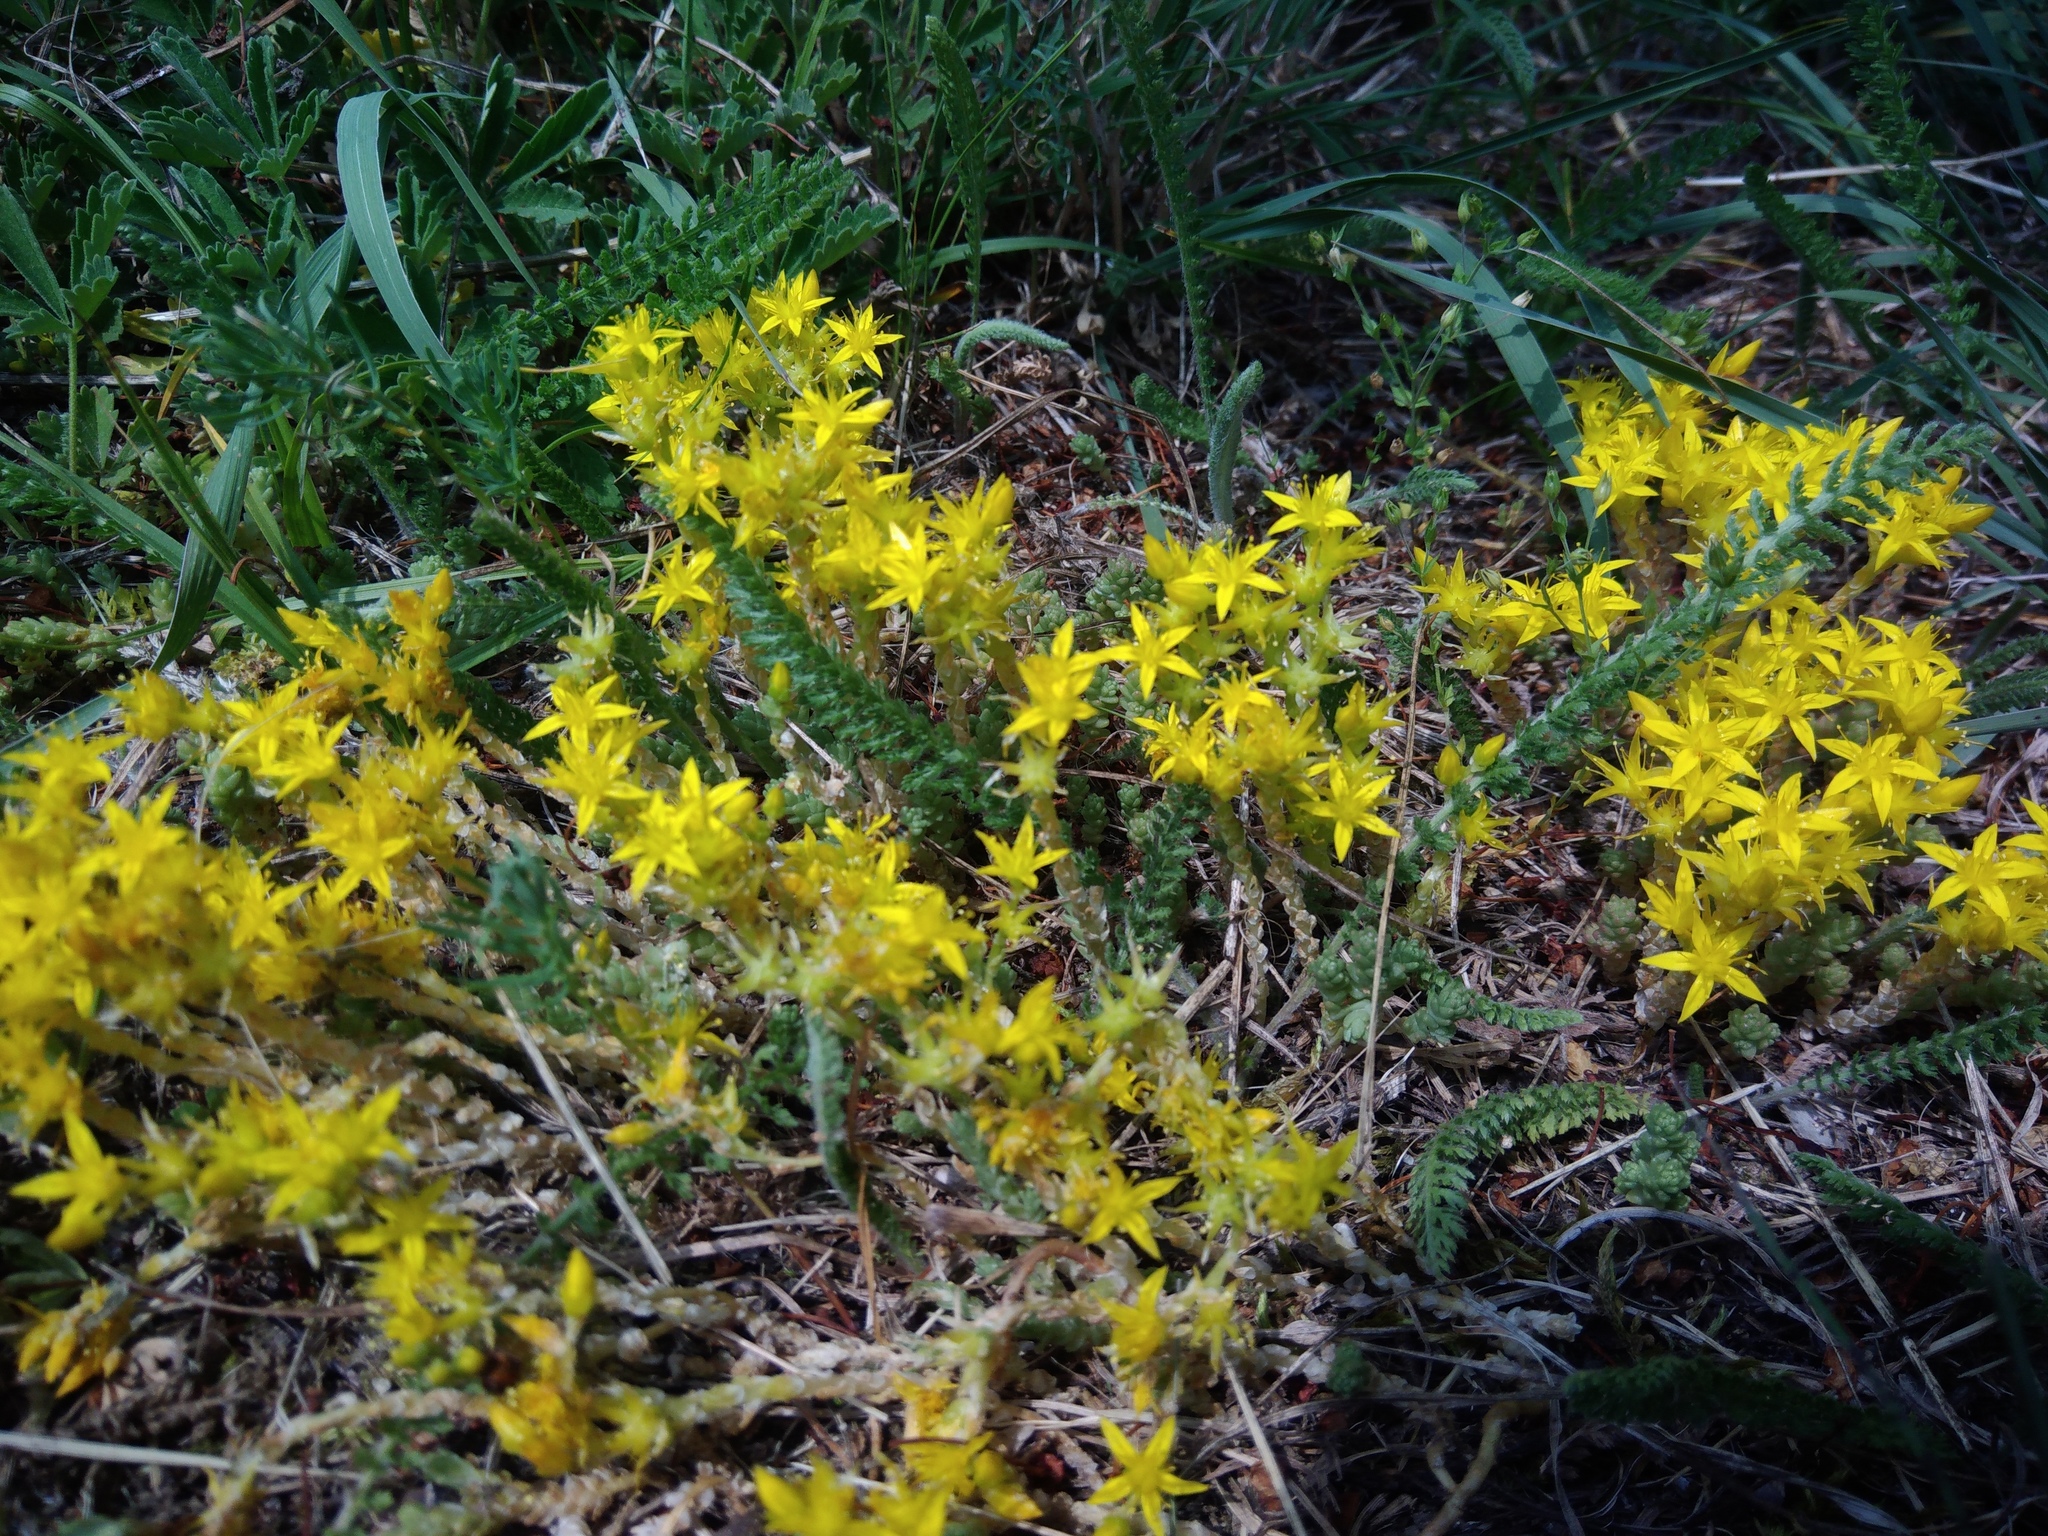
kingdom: Plantae
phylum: Tracheophyta
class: Magnoliopsida
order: Saxifragales
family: Crassulaceae
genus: Sedum
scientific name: Sedum acre
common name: Biting stonecrop
